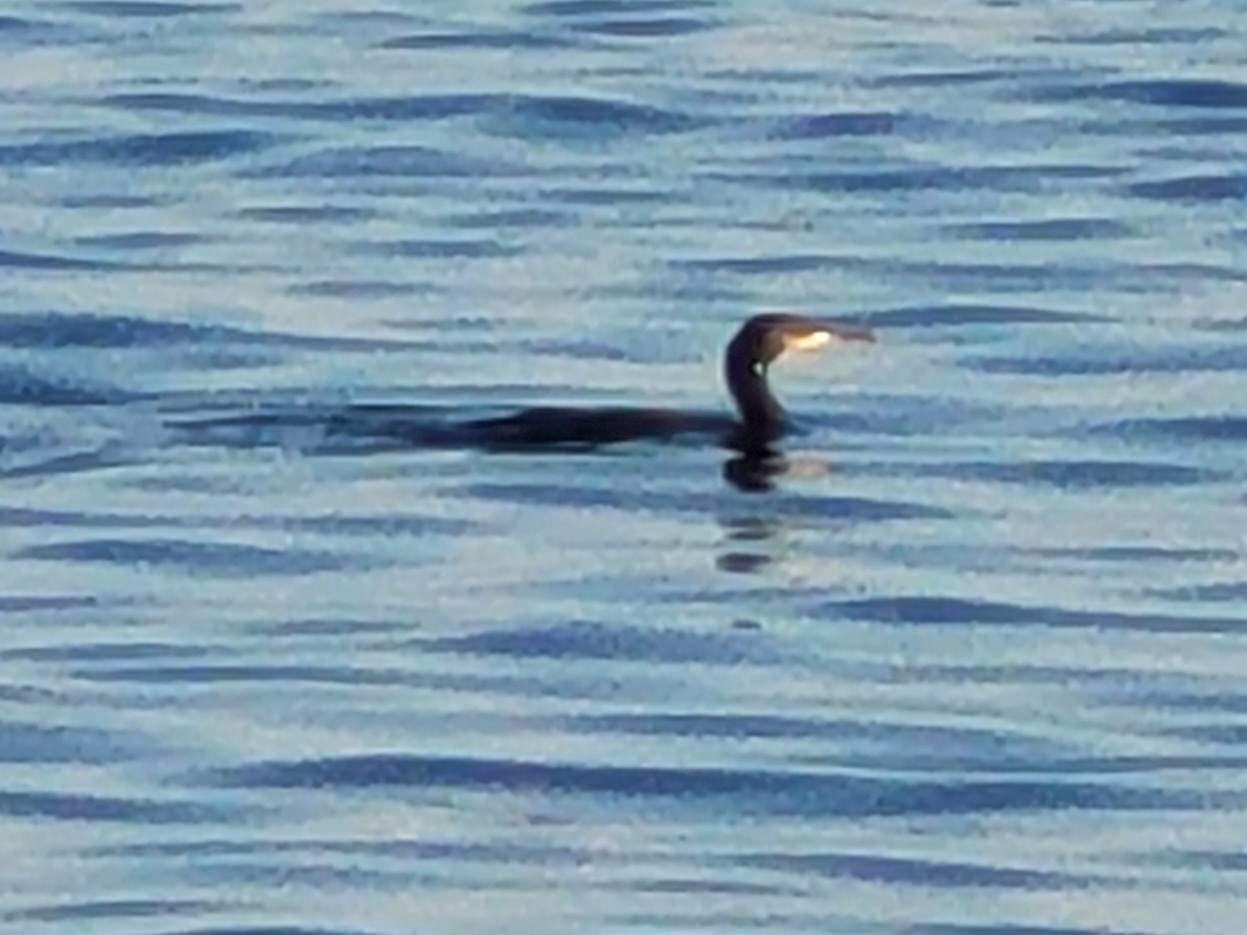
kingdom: Animalia
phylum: Chordata
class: Aves
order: Suliformes
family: Phalacrocoracidae
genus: Phalacrocorax
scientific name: Phalacrocorax aristotelis
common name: European shag
